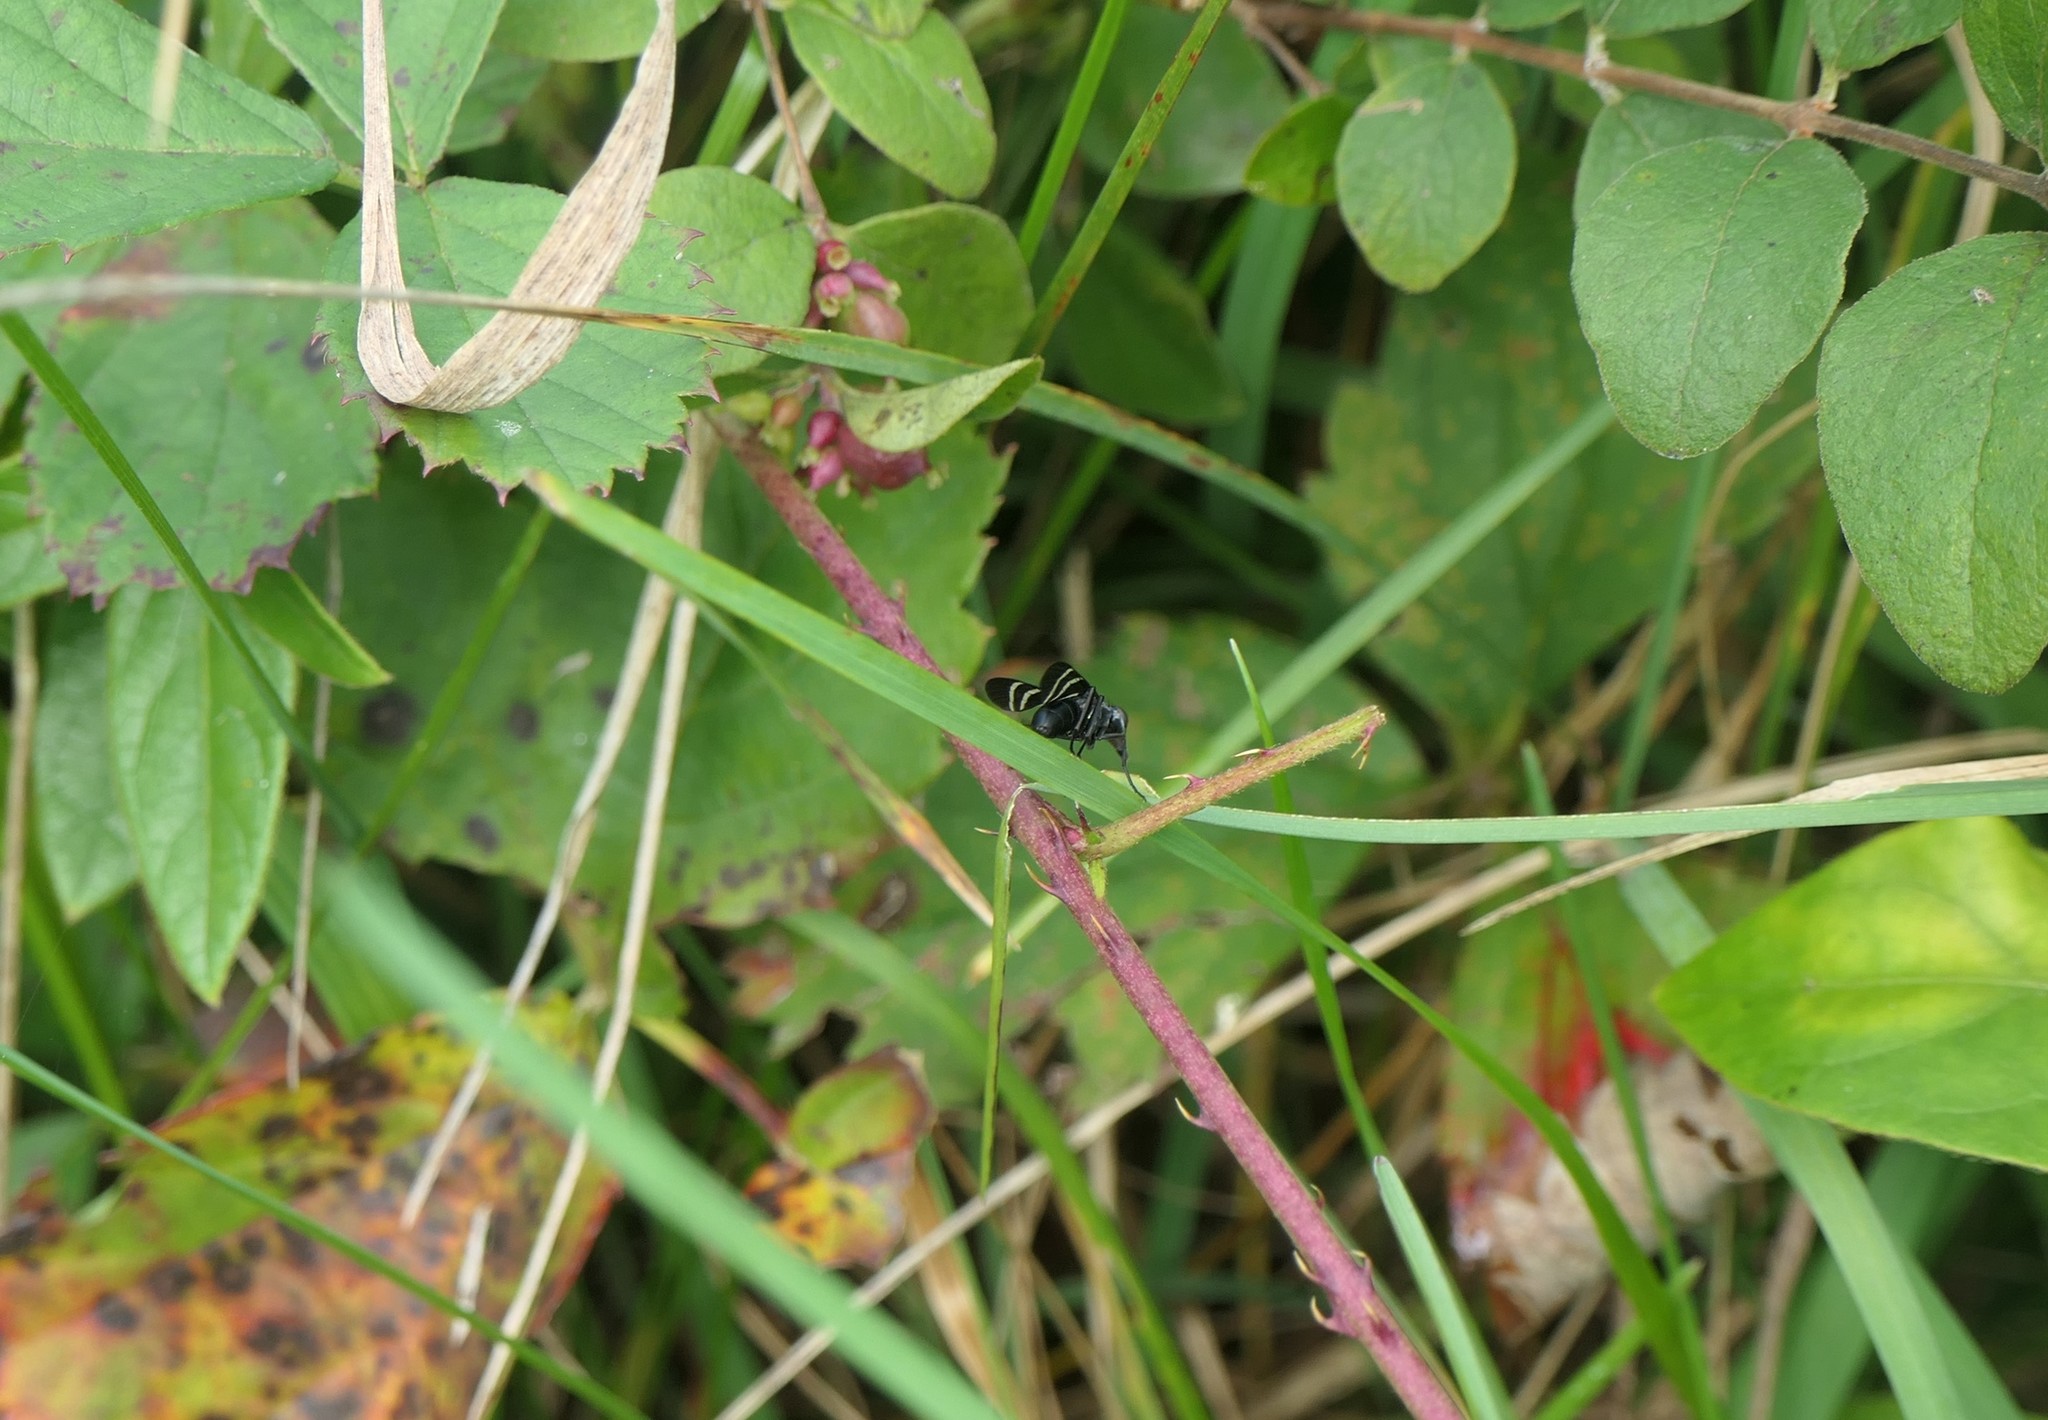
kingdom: Animalia
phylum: Arthropoda
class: Insecta
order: Diptera
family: Ulidiidae
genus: Tritoxa
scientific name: Tritoxa flexa
